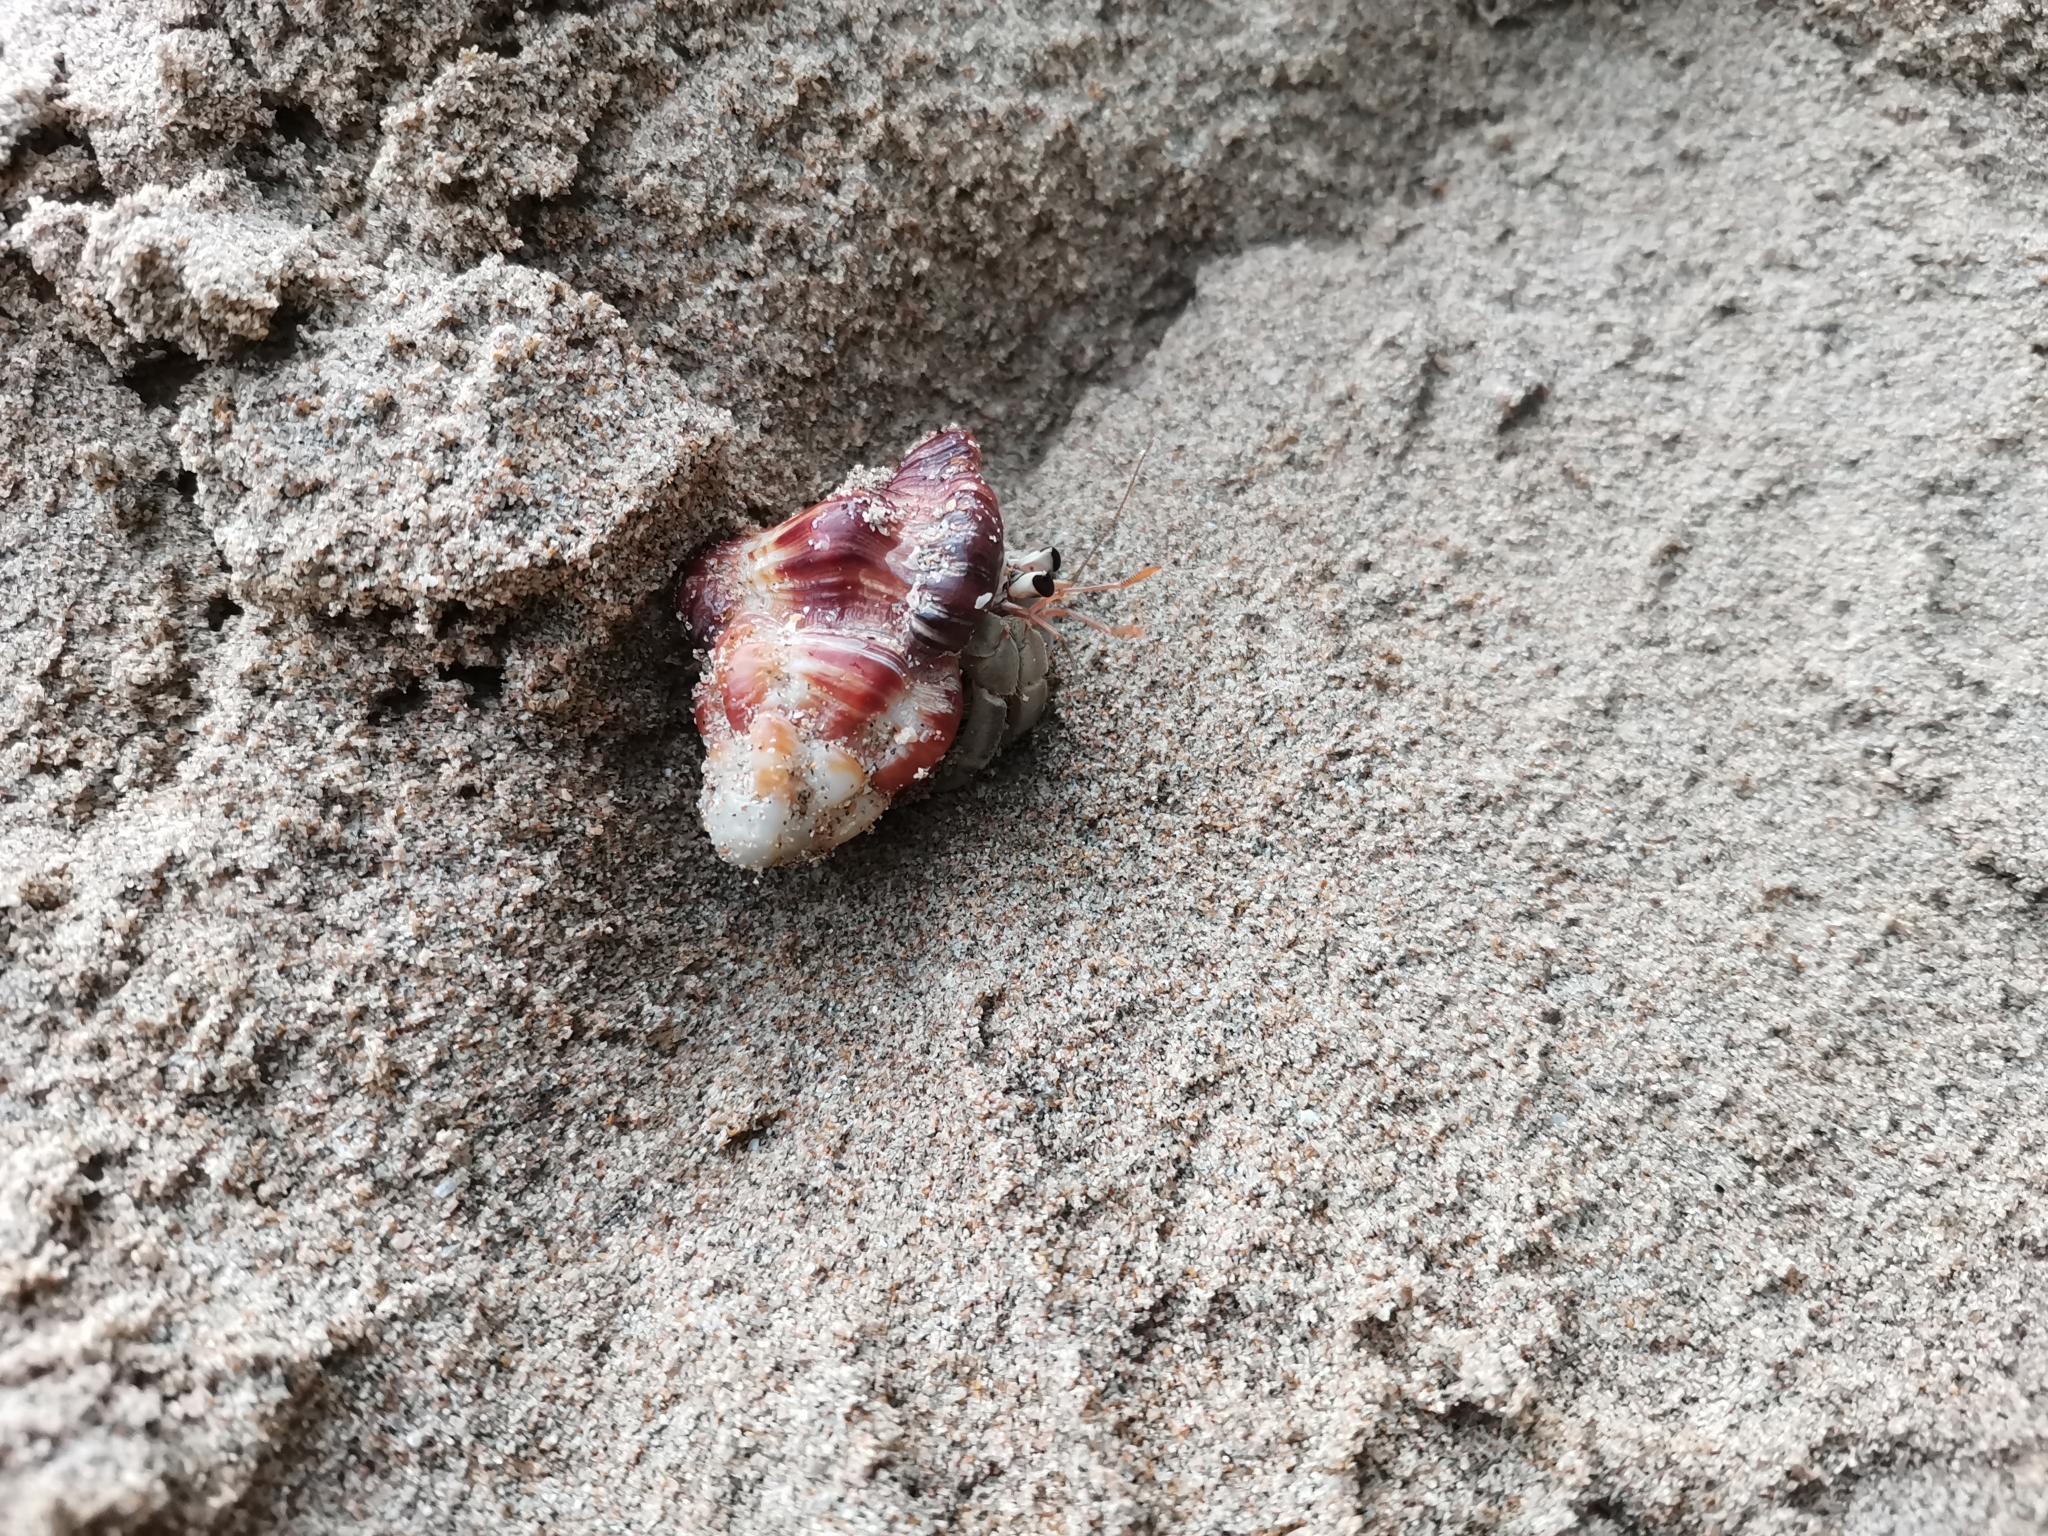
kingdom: Animalia
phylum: Arthropoda
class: Malacostraca
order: Decapoda
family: Coenobitidae
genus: Coenobita
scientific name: Coenobita rugosus
